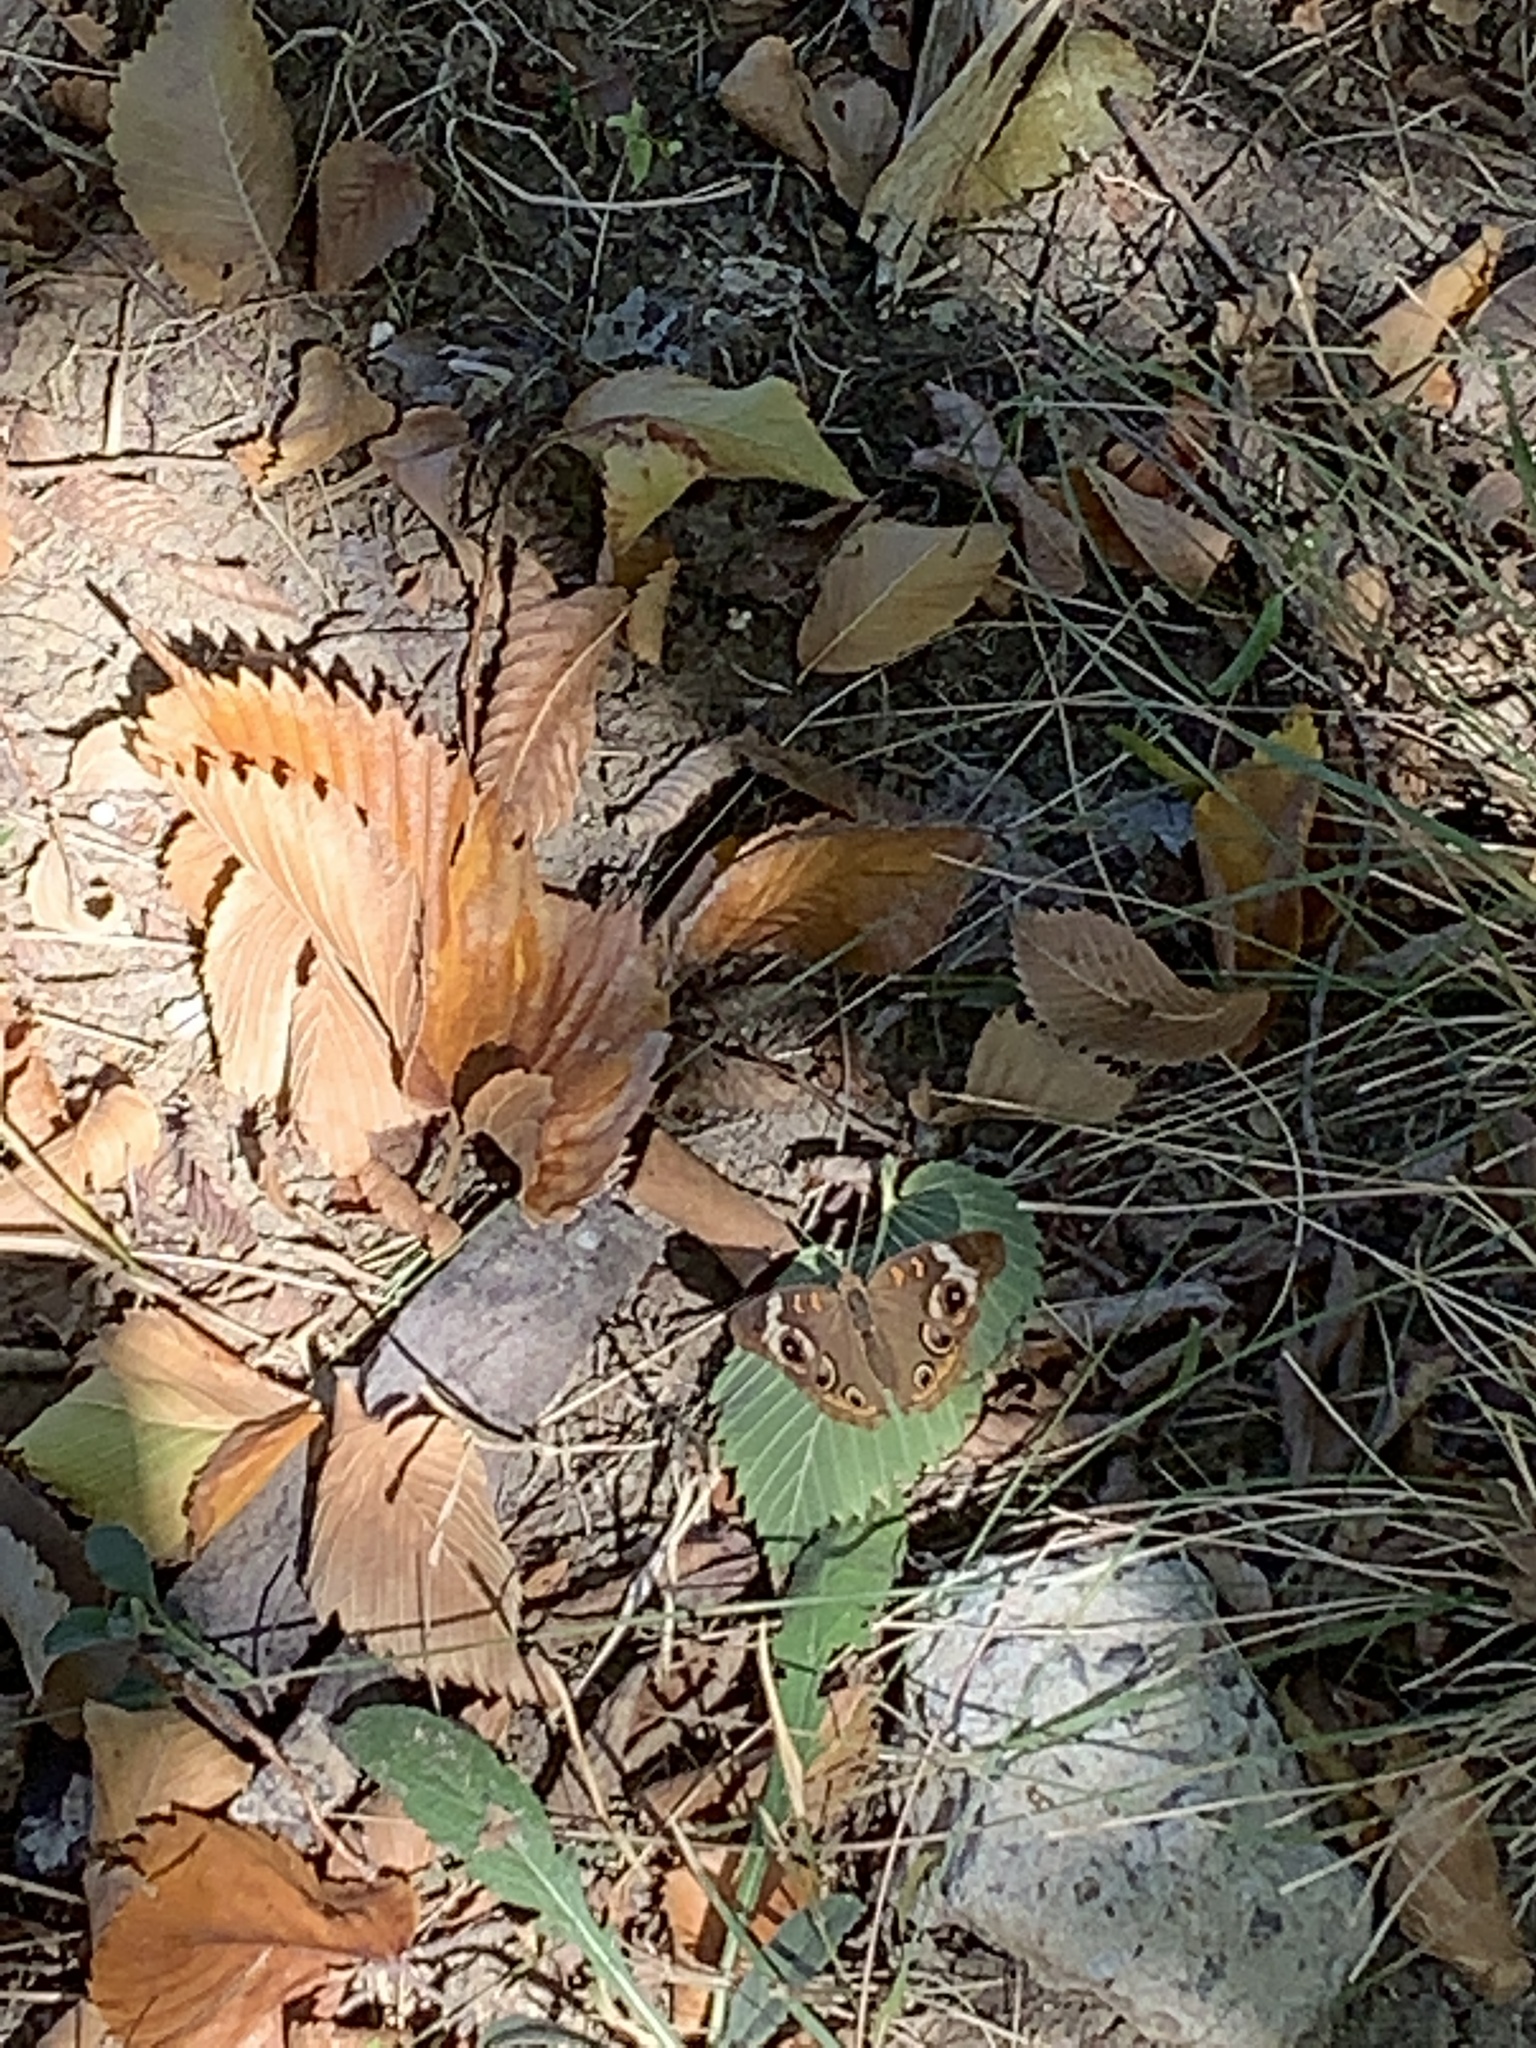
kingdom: Animalia
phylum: Arthropoda
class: Insecta
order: Lepidoptera
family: Nymphalidae
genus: Junonia
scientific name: Junonia coenia
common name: Common buckeye
